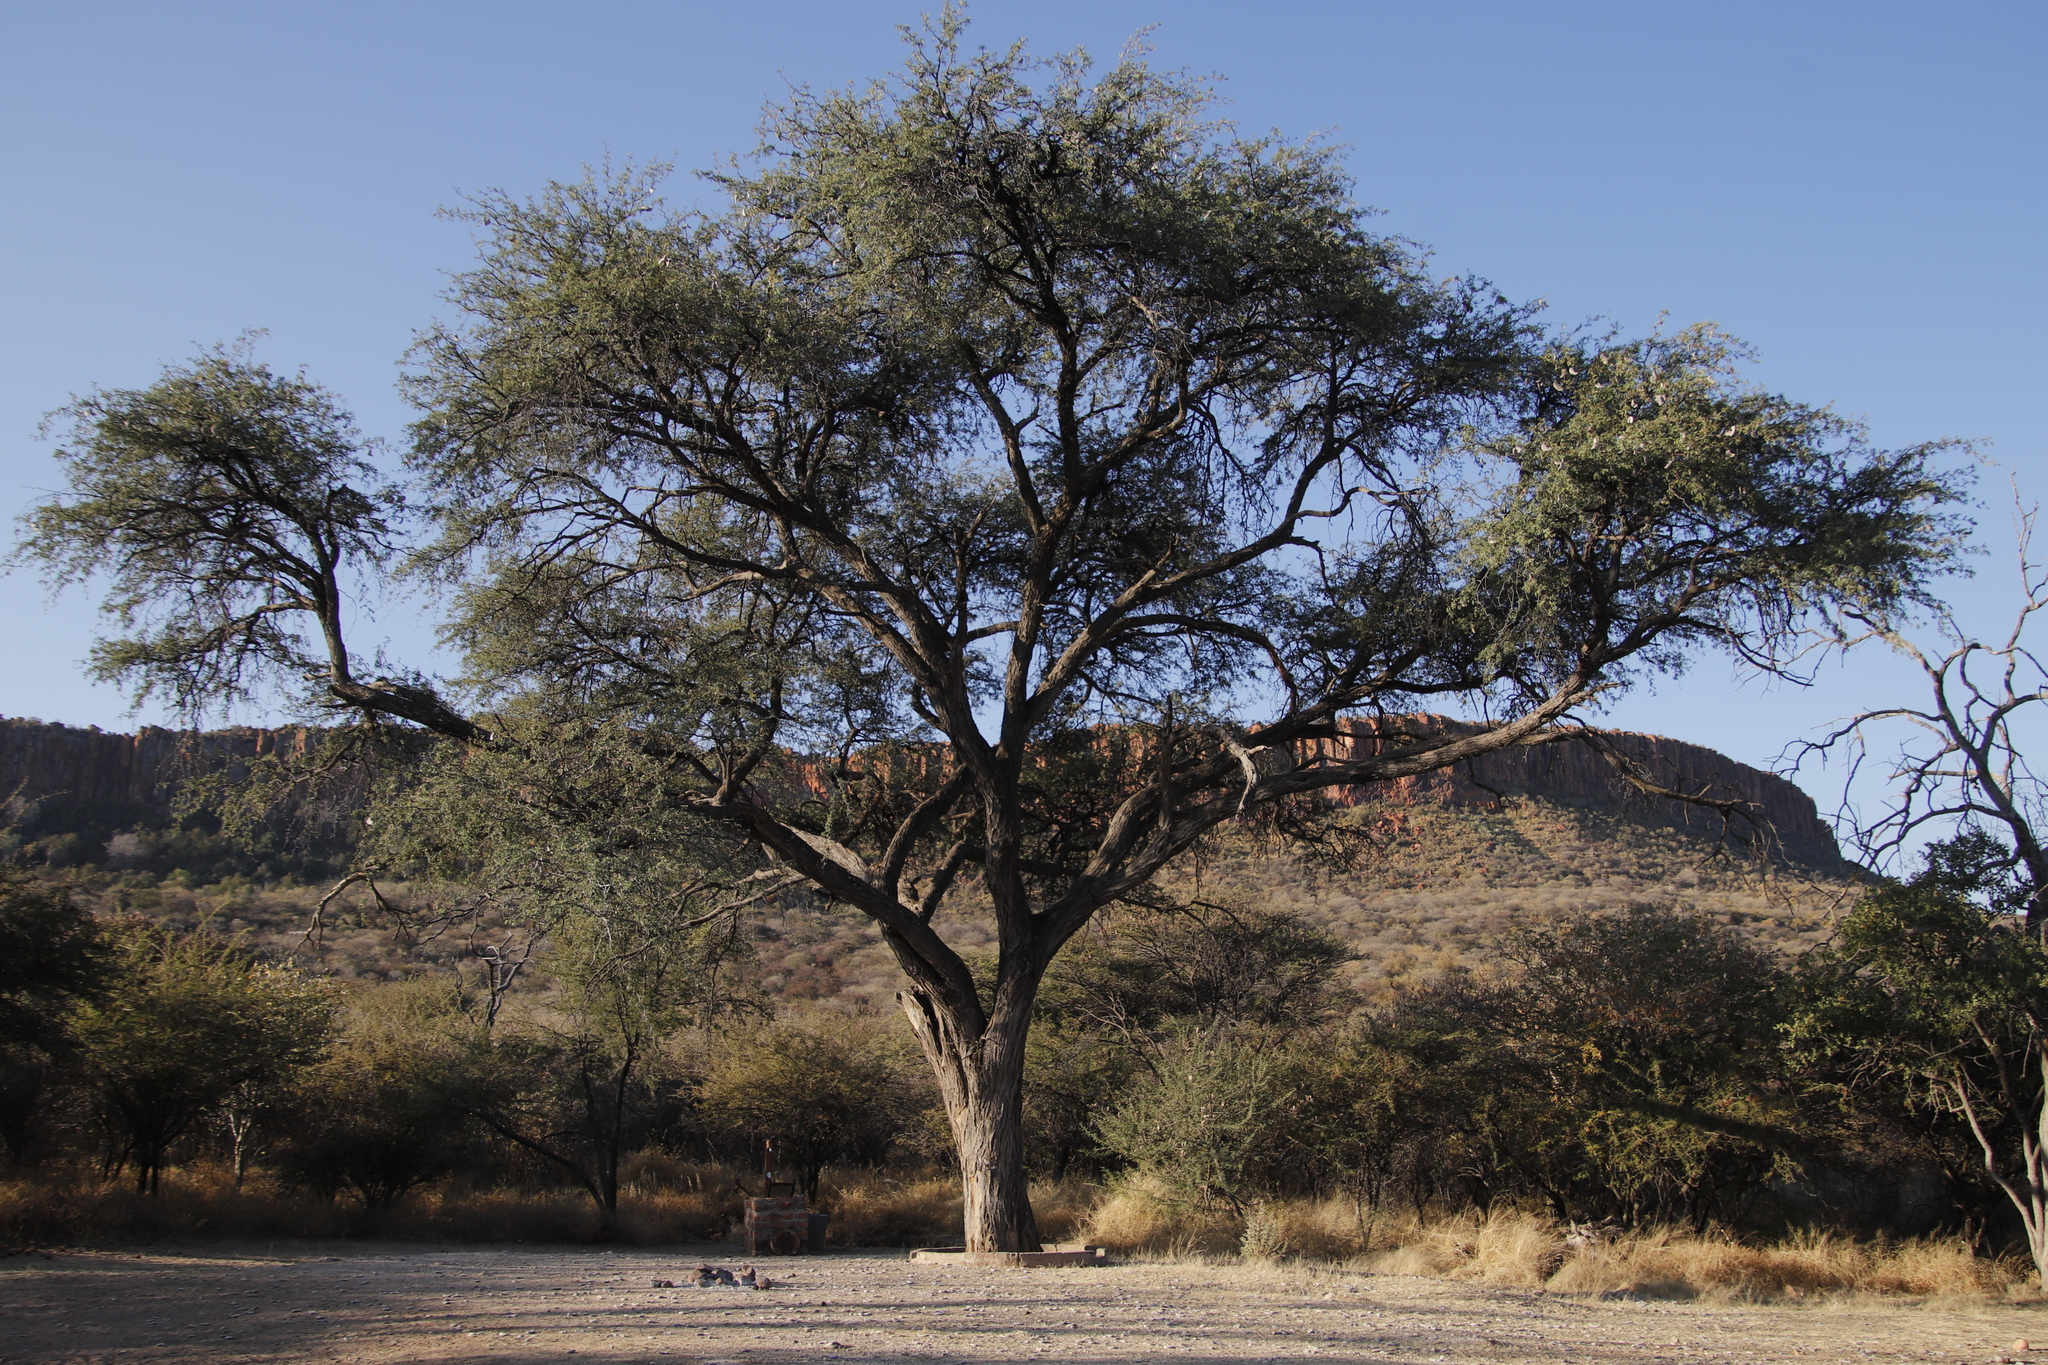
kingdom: Plantae
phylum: Tracheophyta
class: Magnoliopsida
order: Fabales
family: Fabaceae
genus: Vachellia
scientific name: Vachellia erioloba
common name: Camel thorn
